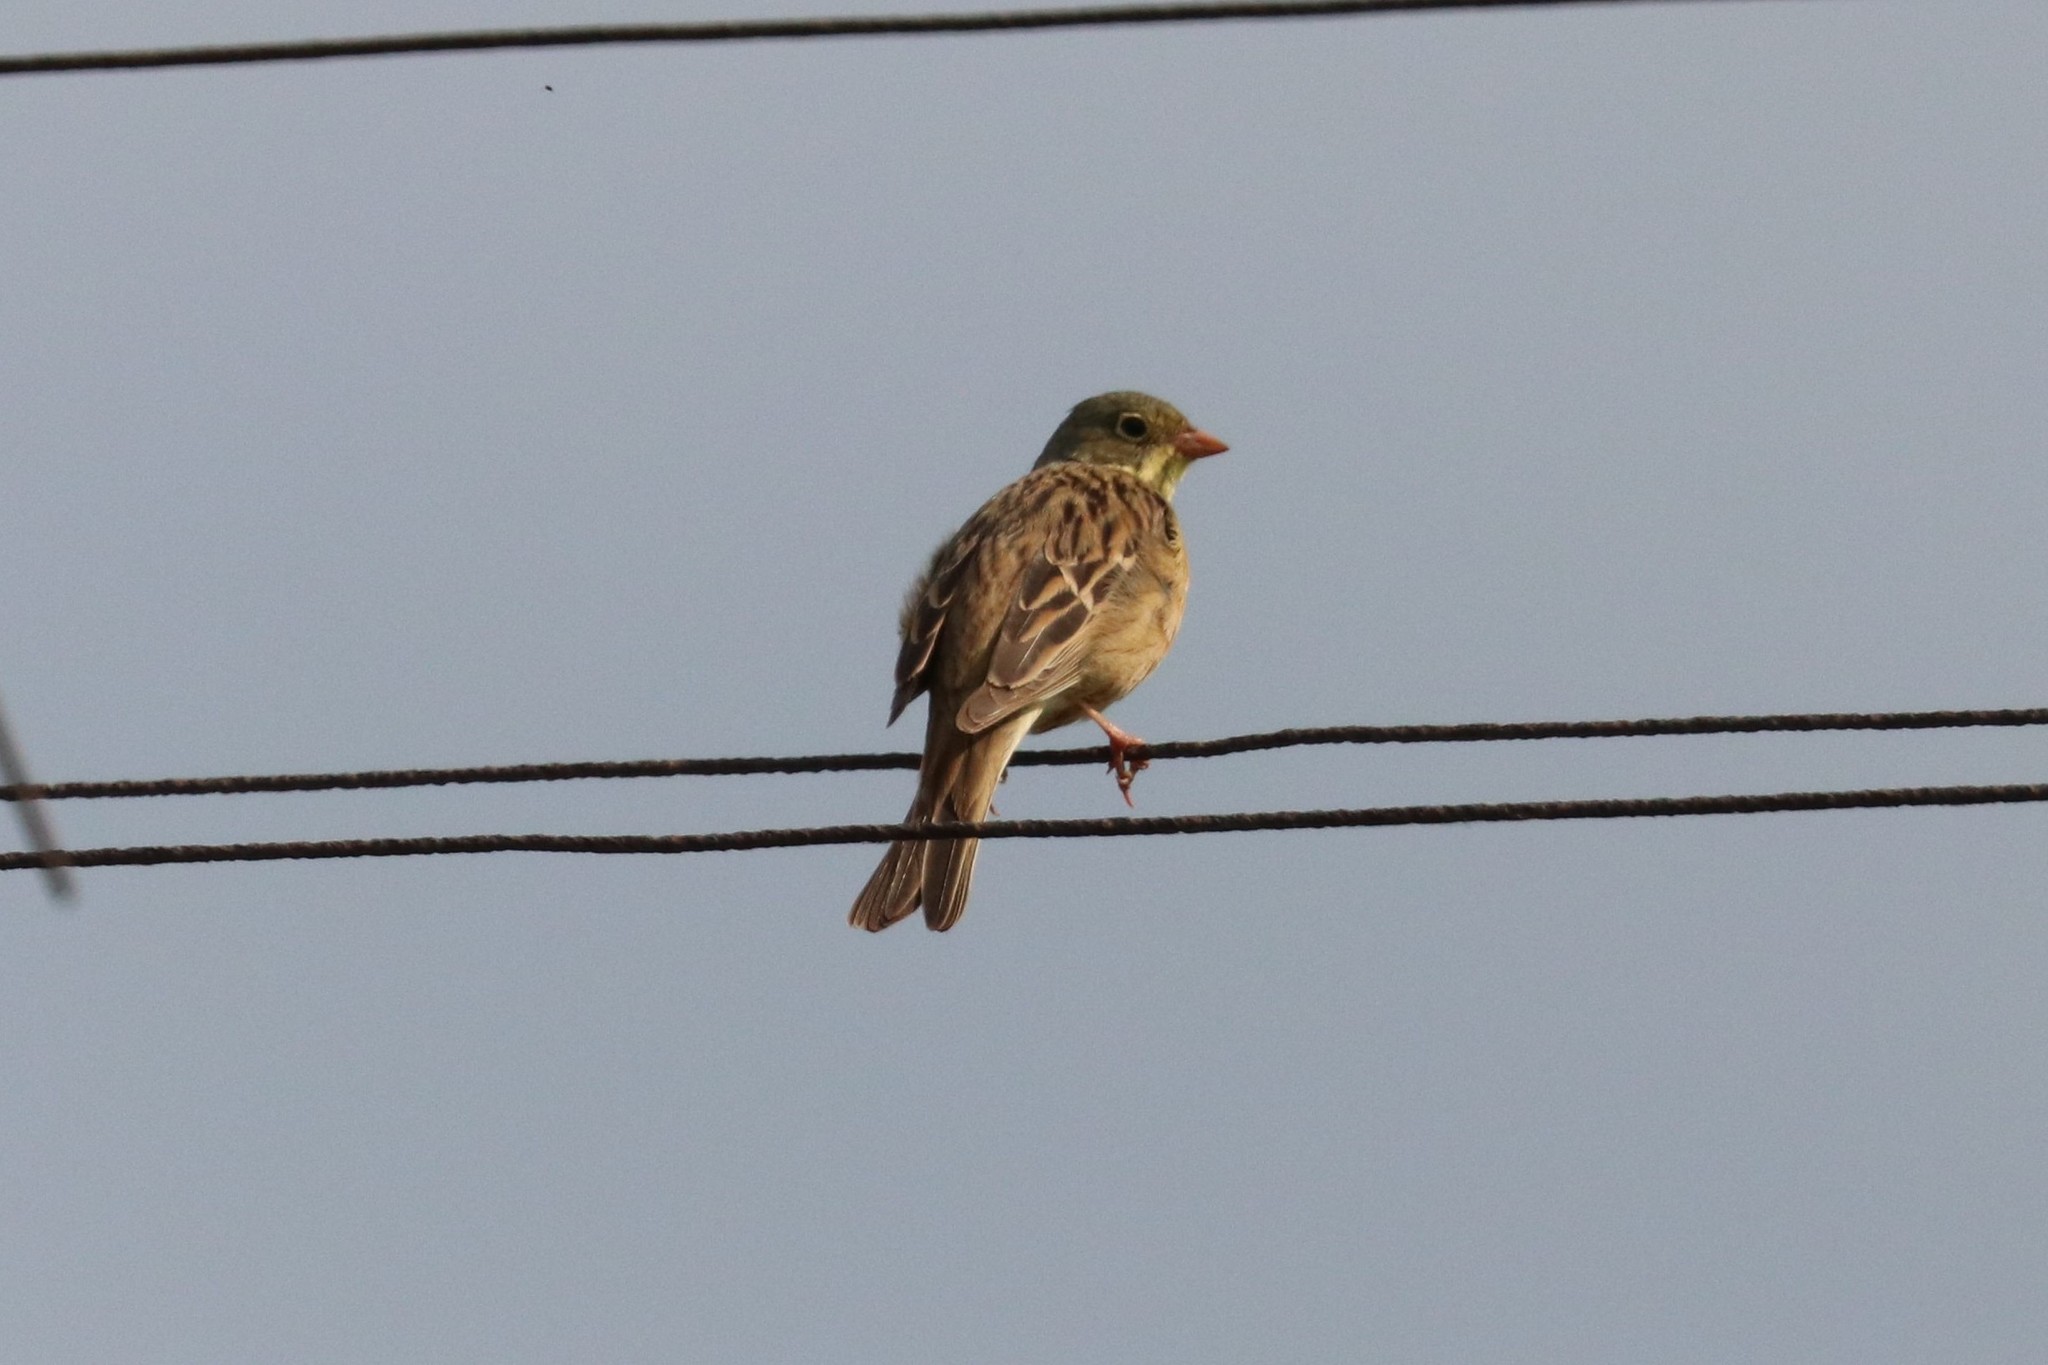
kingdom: Animalia
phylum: Chordata
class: Aves
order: Passeriformes
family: Emberizidae
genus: Emberiza
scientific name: Emberiza hortulana
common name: Ortolan bunting
